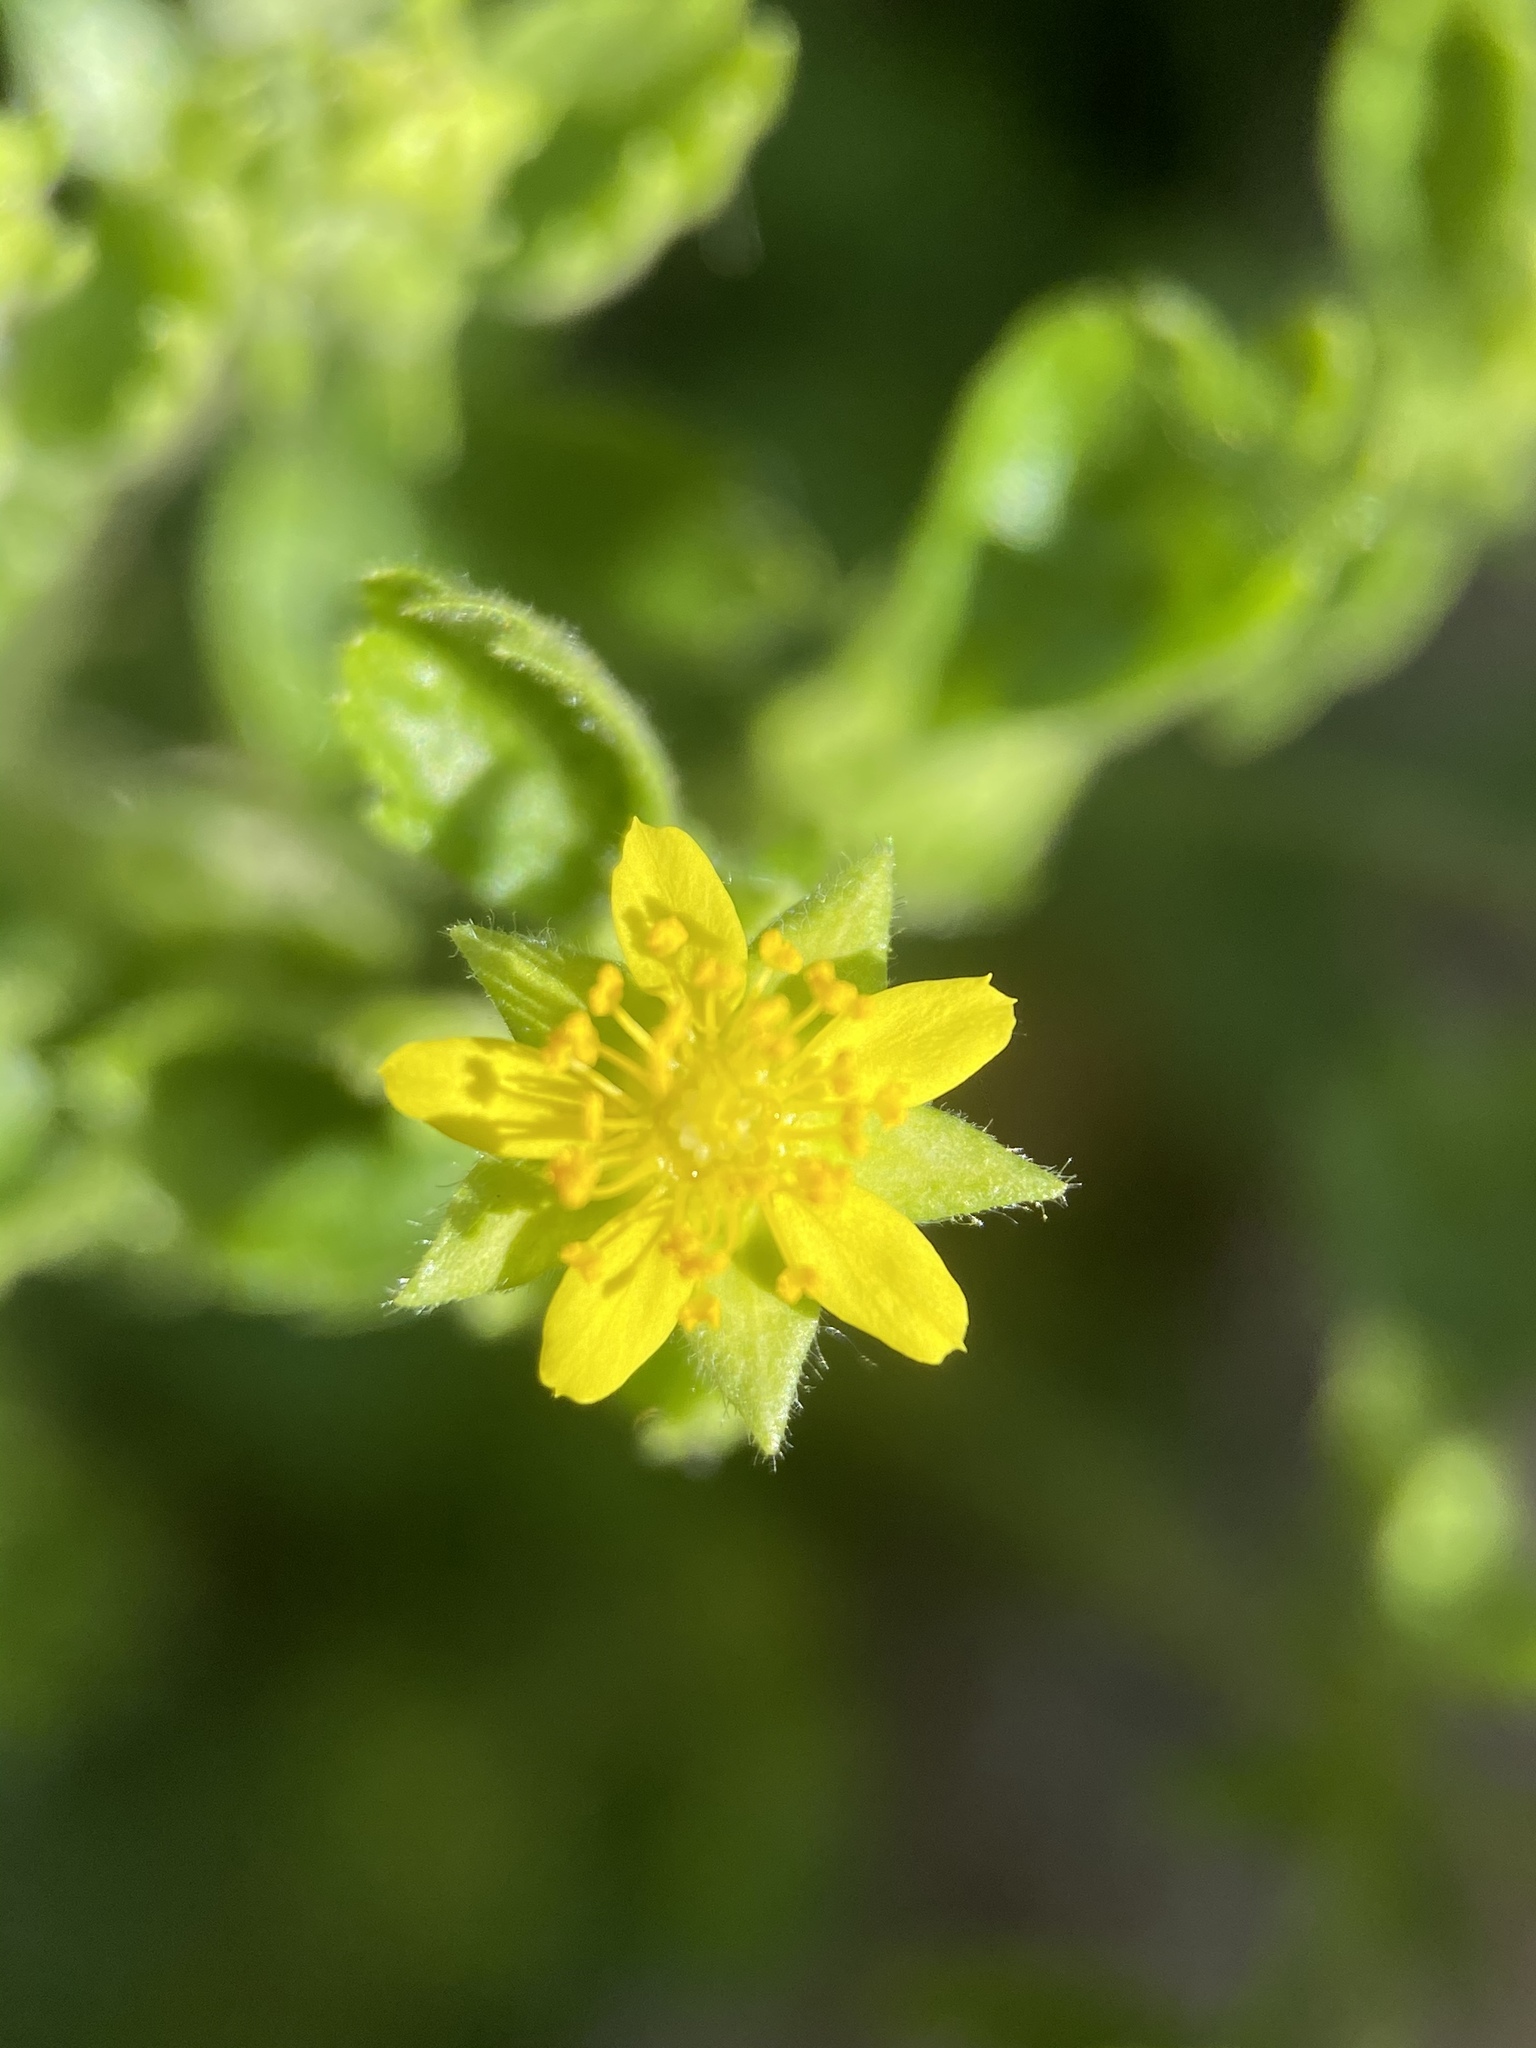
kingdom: Plantae
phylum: Tracheophyta
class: Magnoliopsida
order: Rosales
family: Rosaceae
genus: Potentilla
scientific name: Potentilla saxosa
